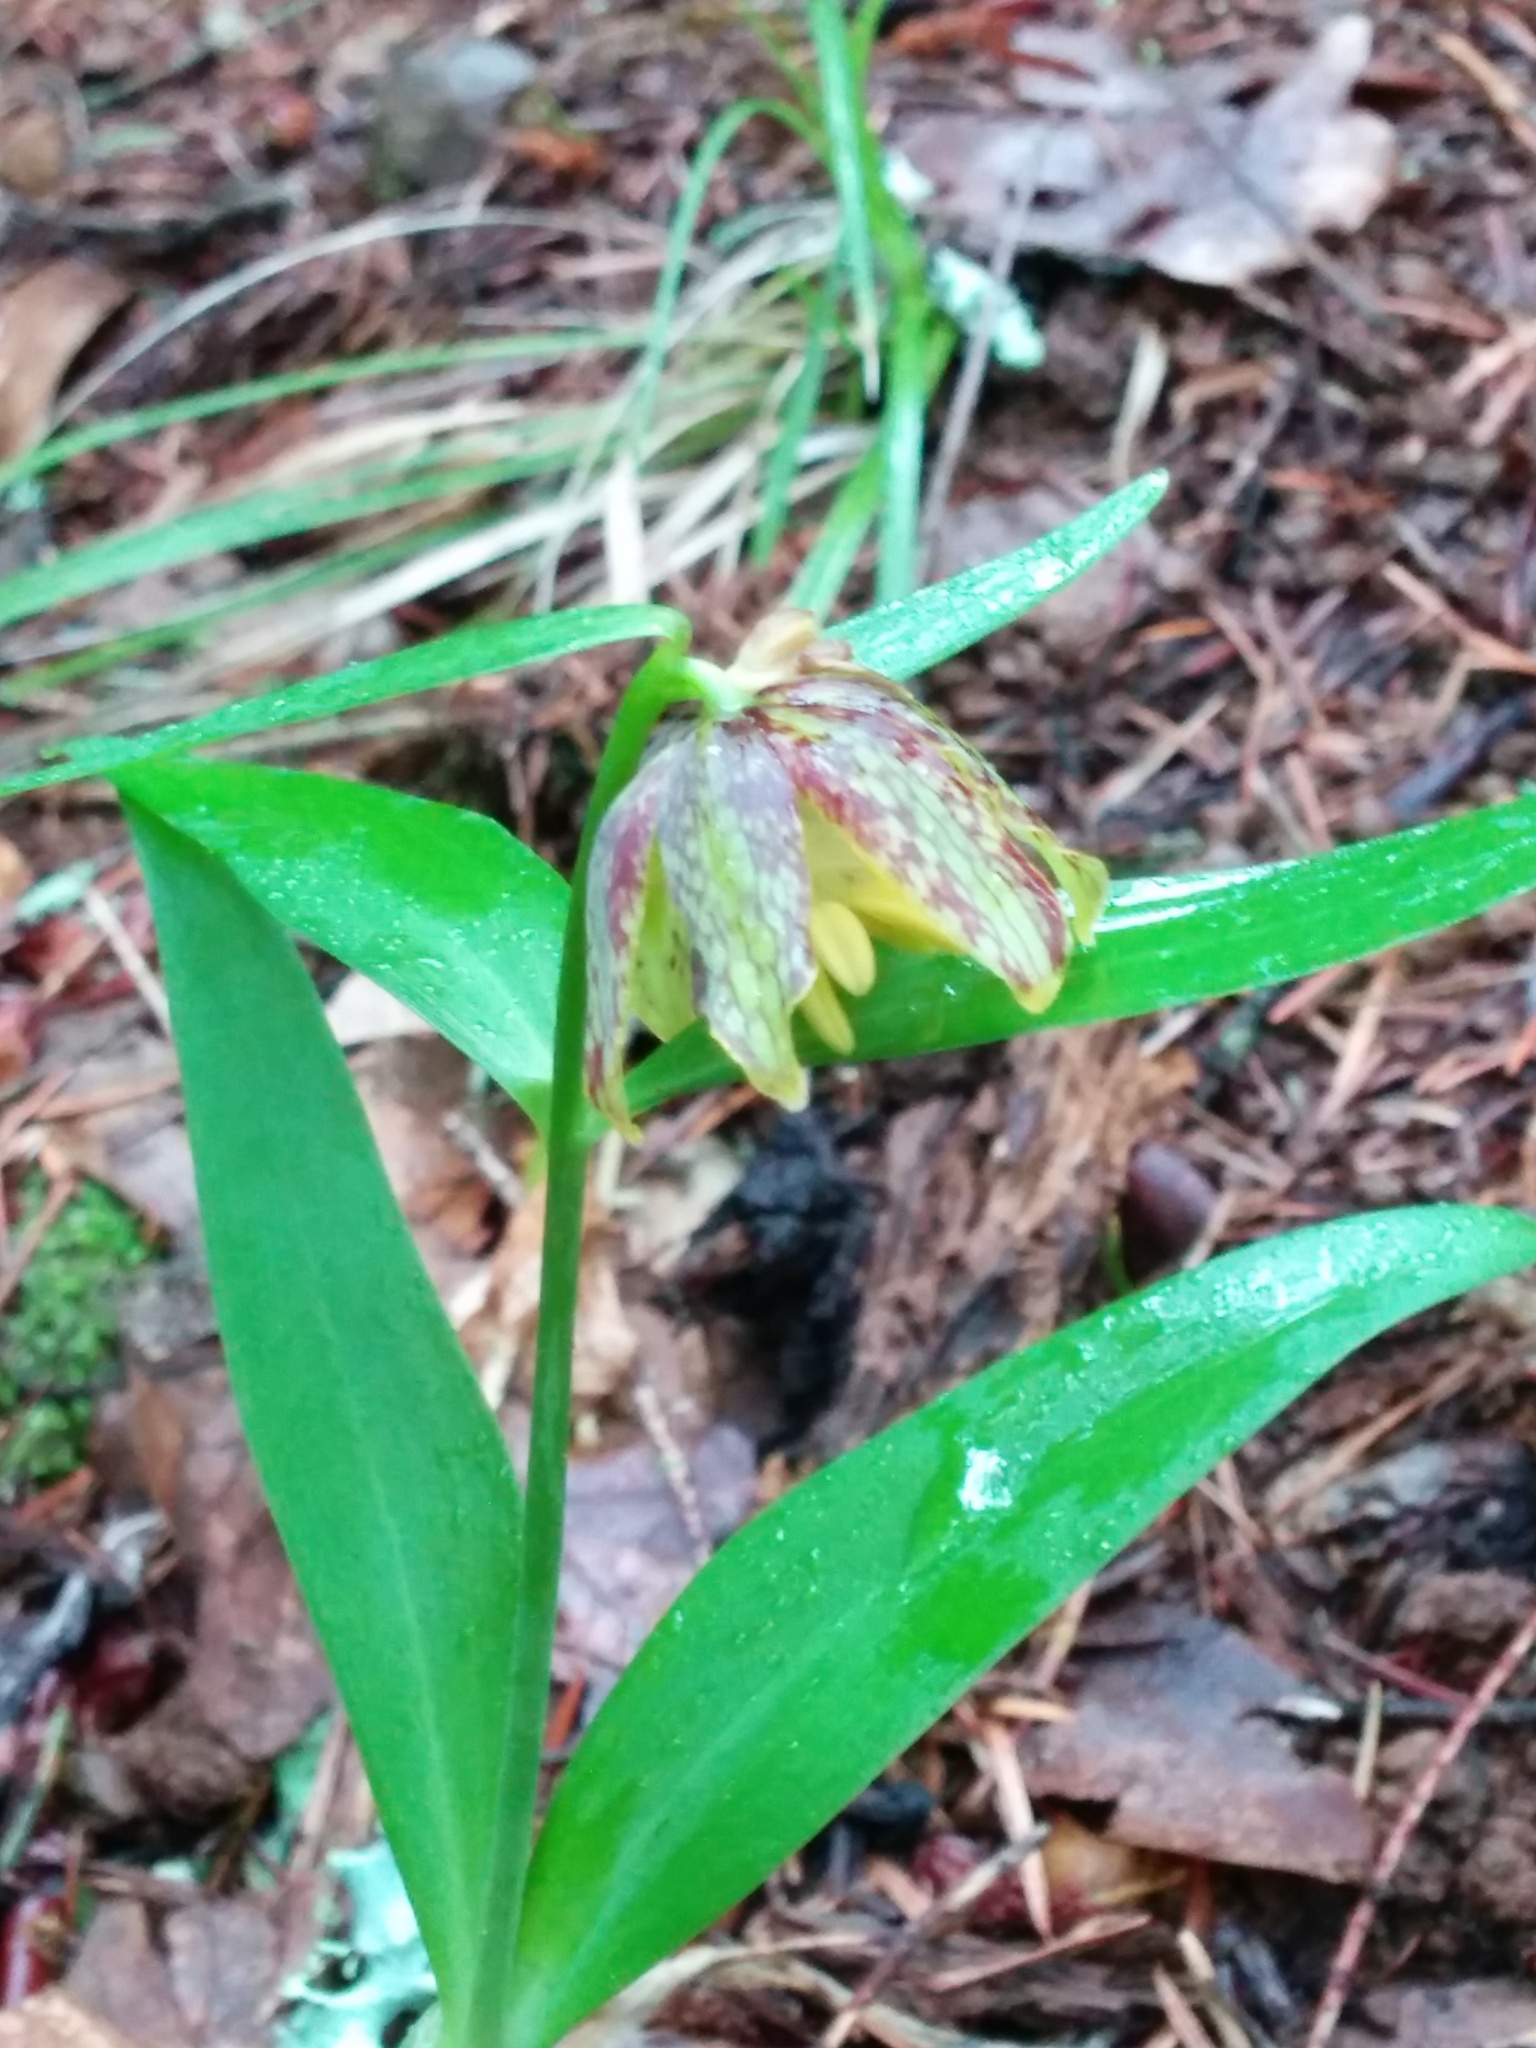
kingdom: Plantae
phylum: Tracheophyta
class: Liliopsida
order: Liliales
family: Liliaceae
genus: Fritillaria
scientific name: Fritillaria affinis
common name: Ojai fritillary
